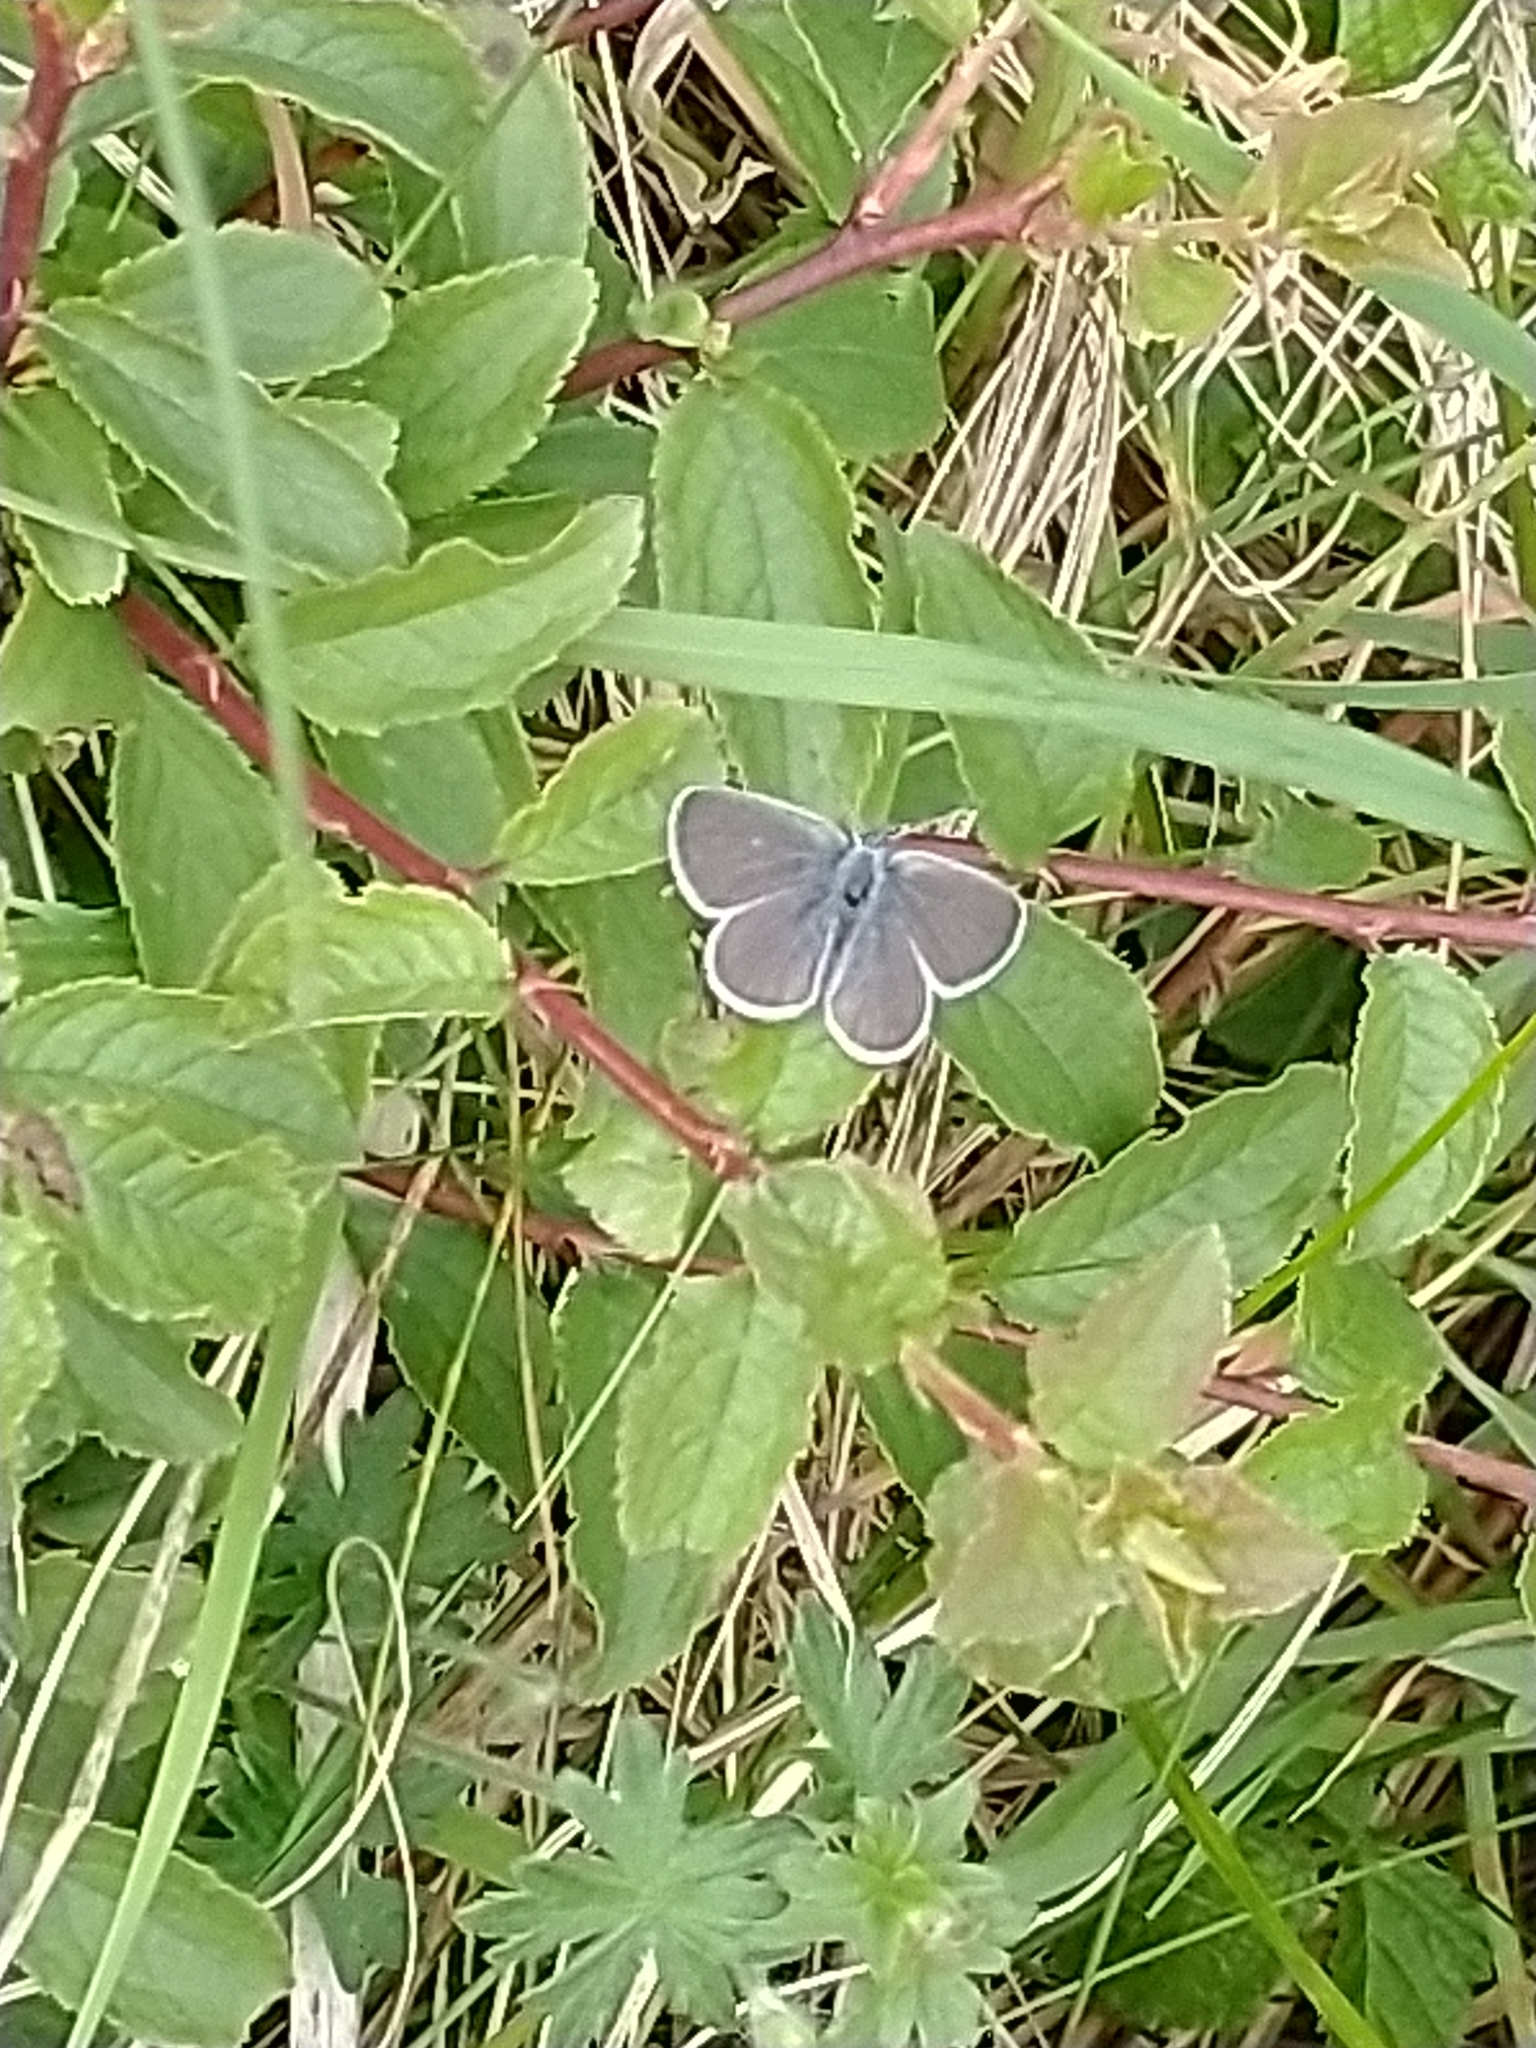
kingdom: Animalia
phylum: Arthropoda
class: Insecta
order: Lepidoptera
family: Lycaenidae
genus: Cupido
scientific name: Cupido minimus
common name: Small blue
